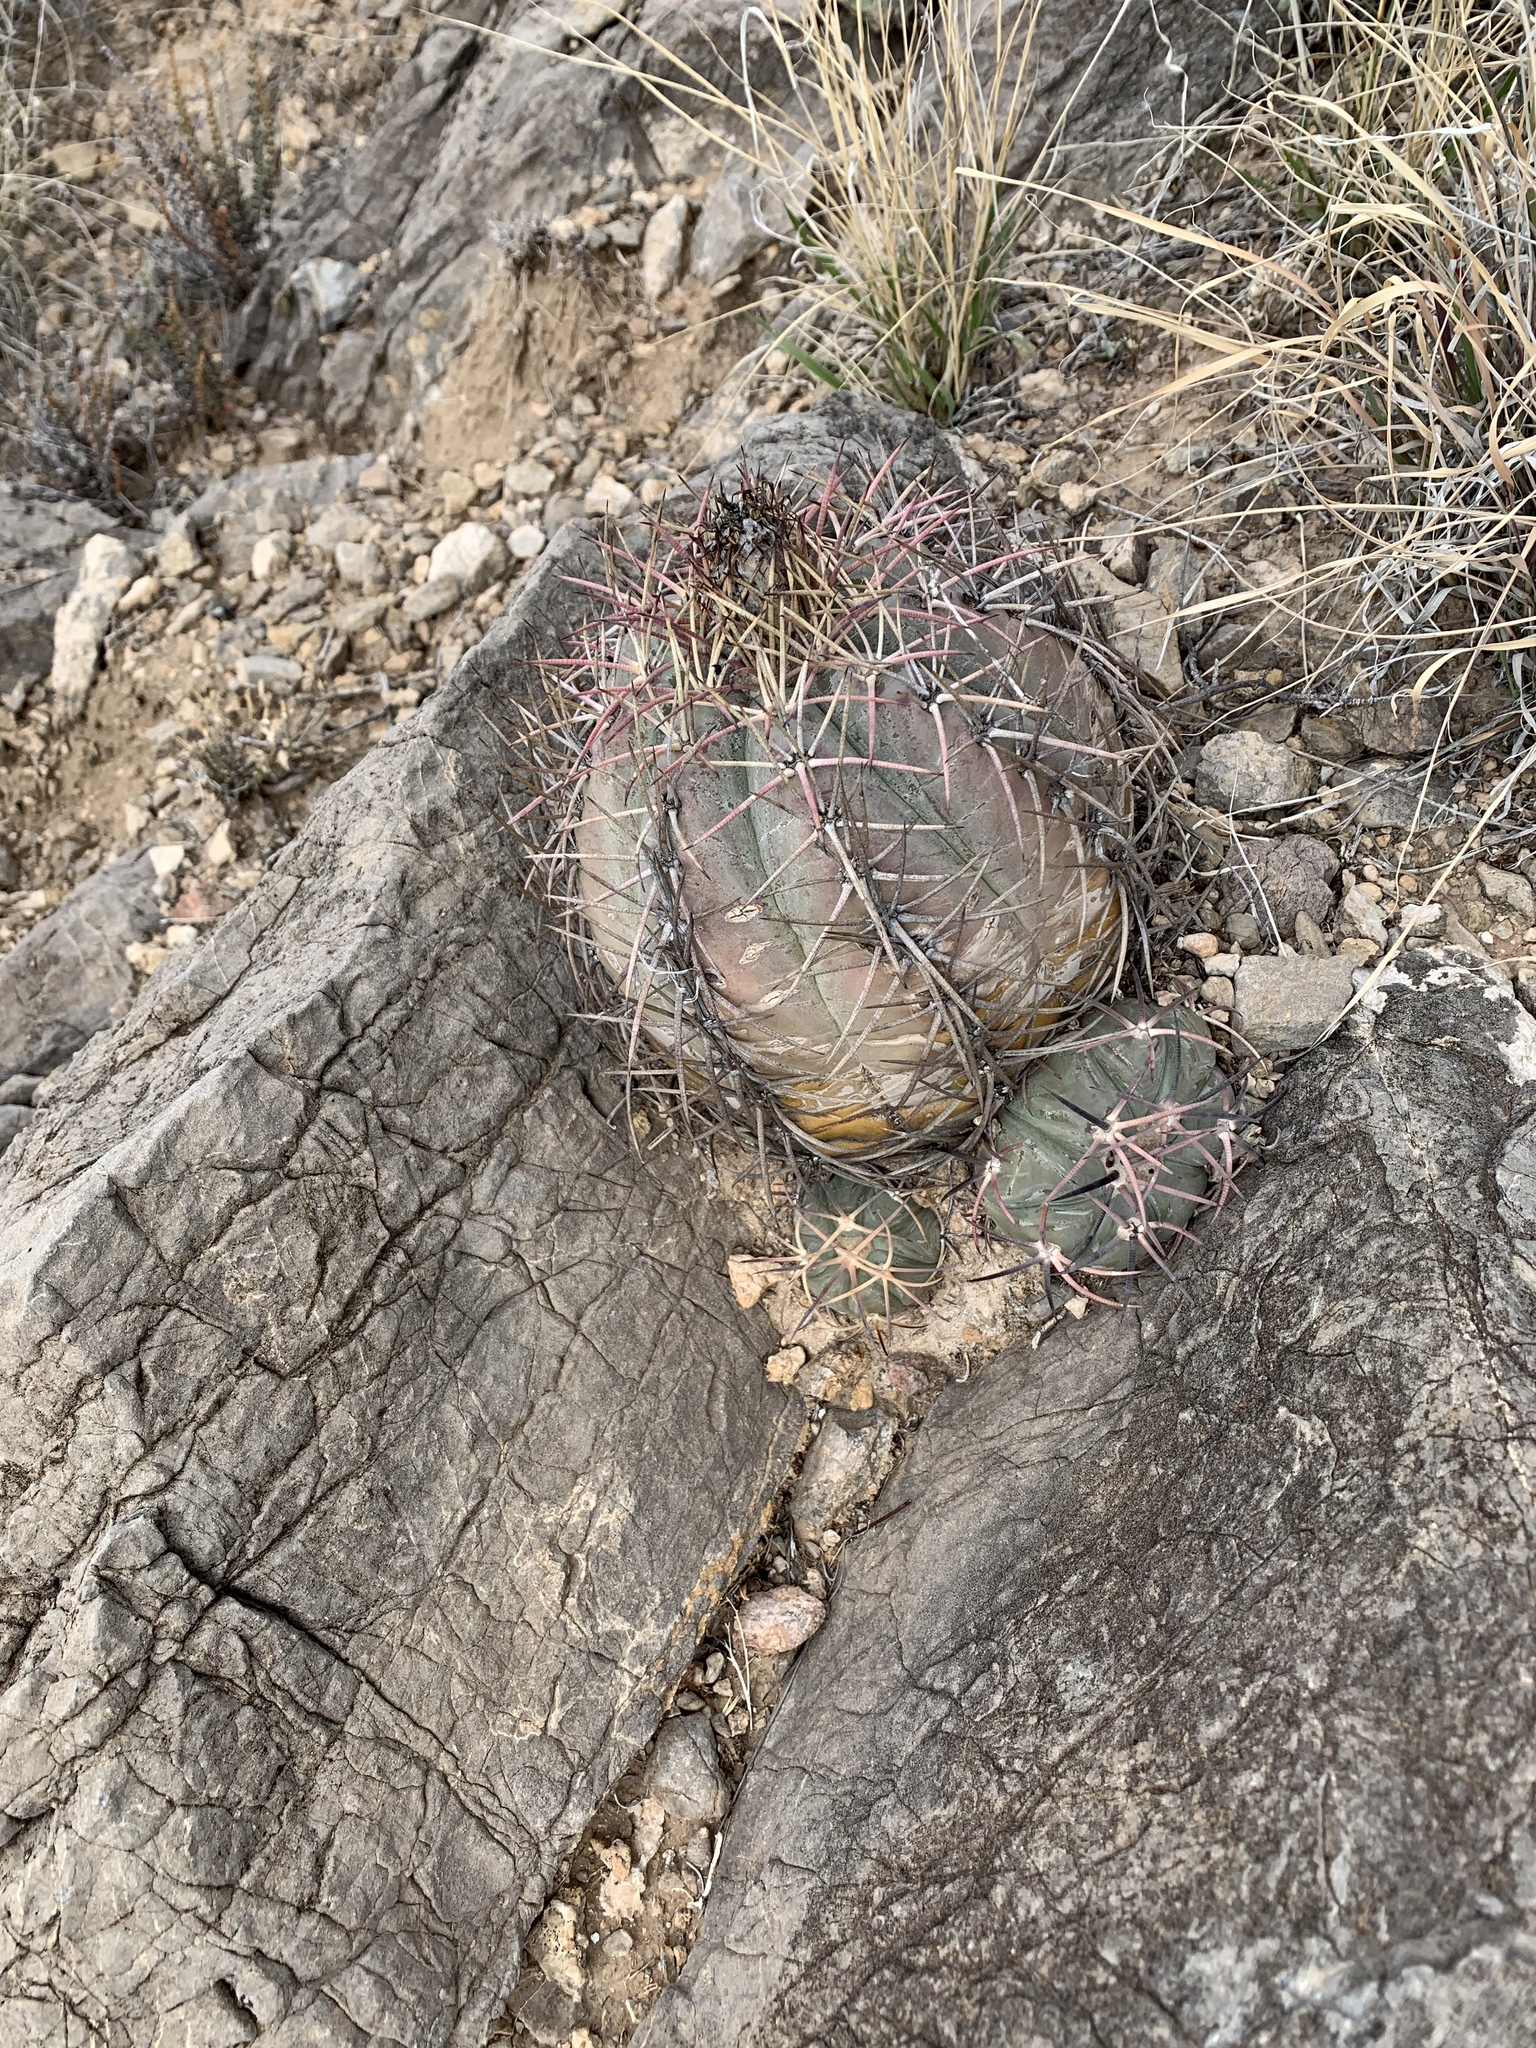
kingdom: Plantae
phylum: Tracheophyta
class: Magnoliopsida
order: Caryophyllales
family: Cactaceae
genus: Echinocactus
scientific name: Echinocactus horizonthalonius
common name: Devilshead
